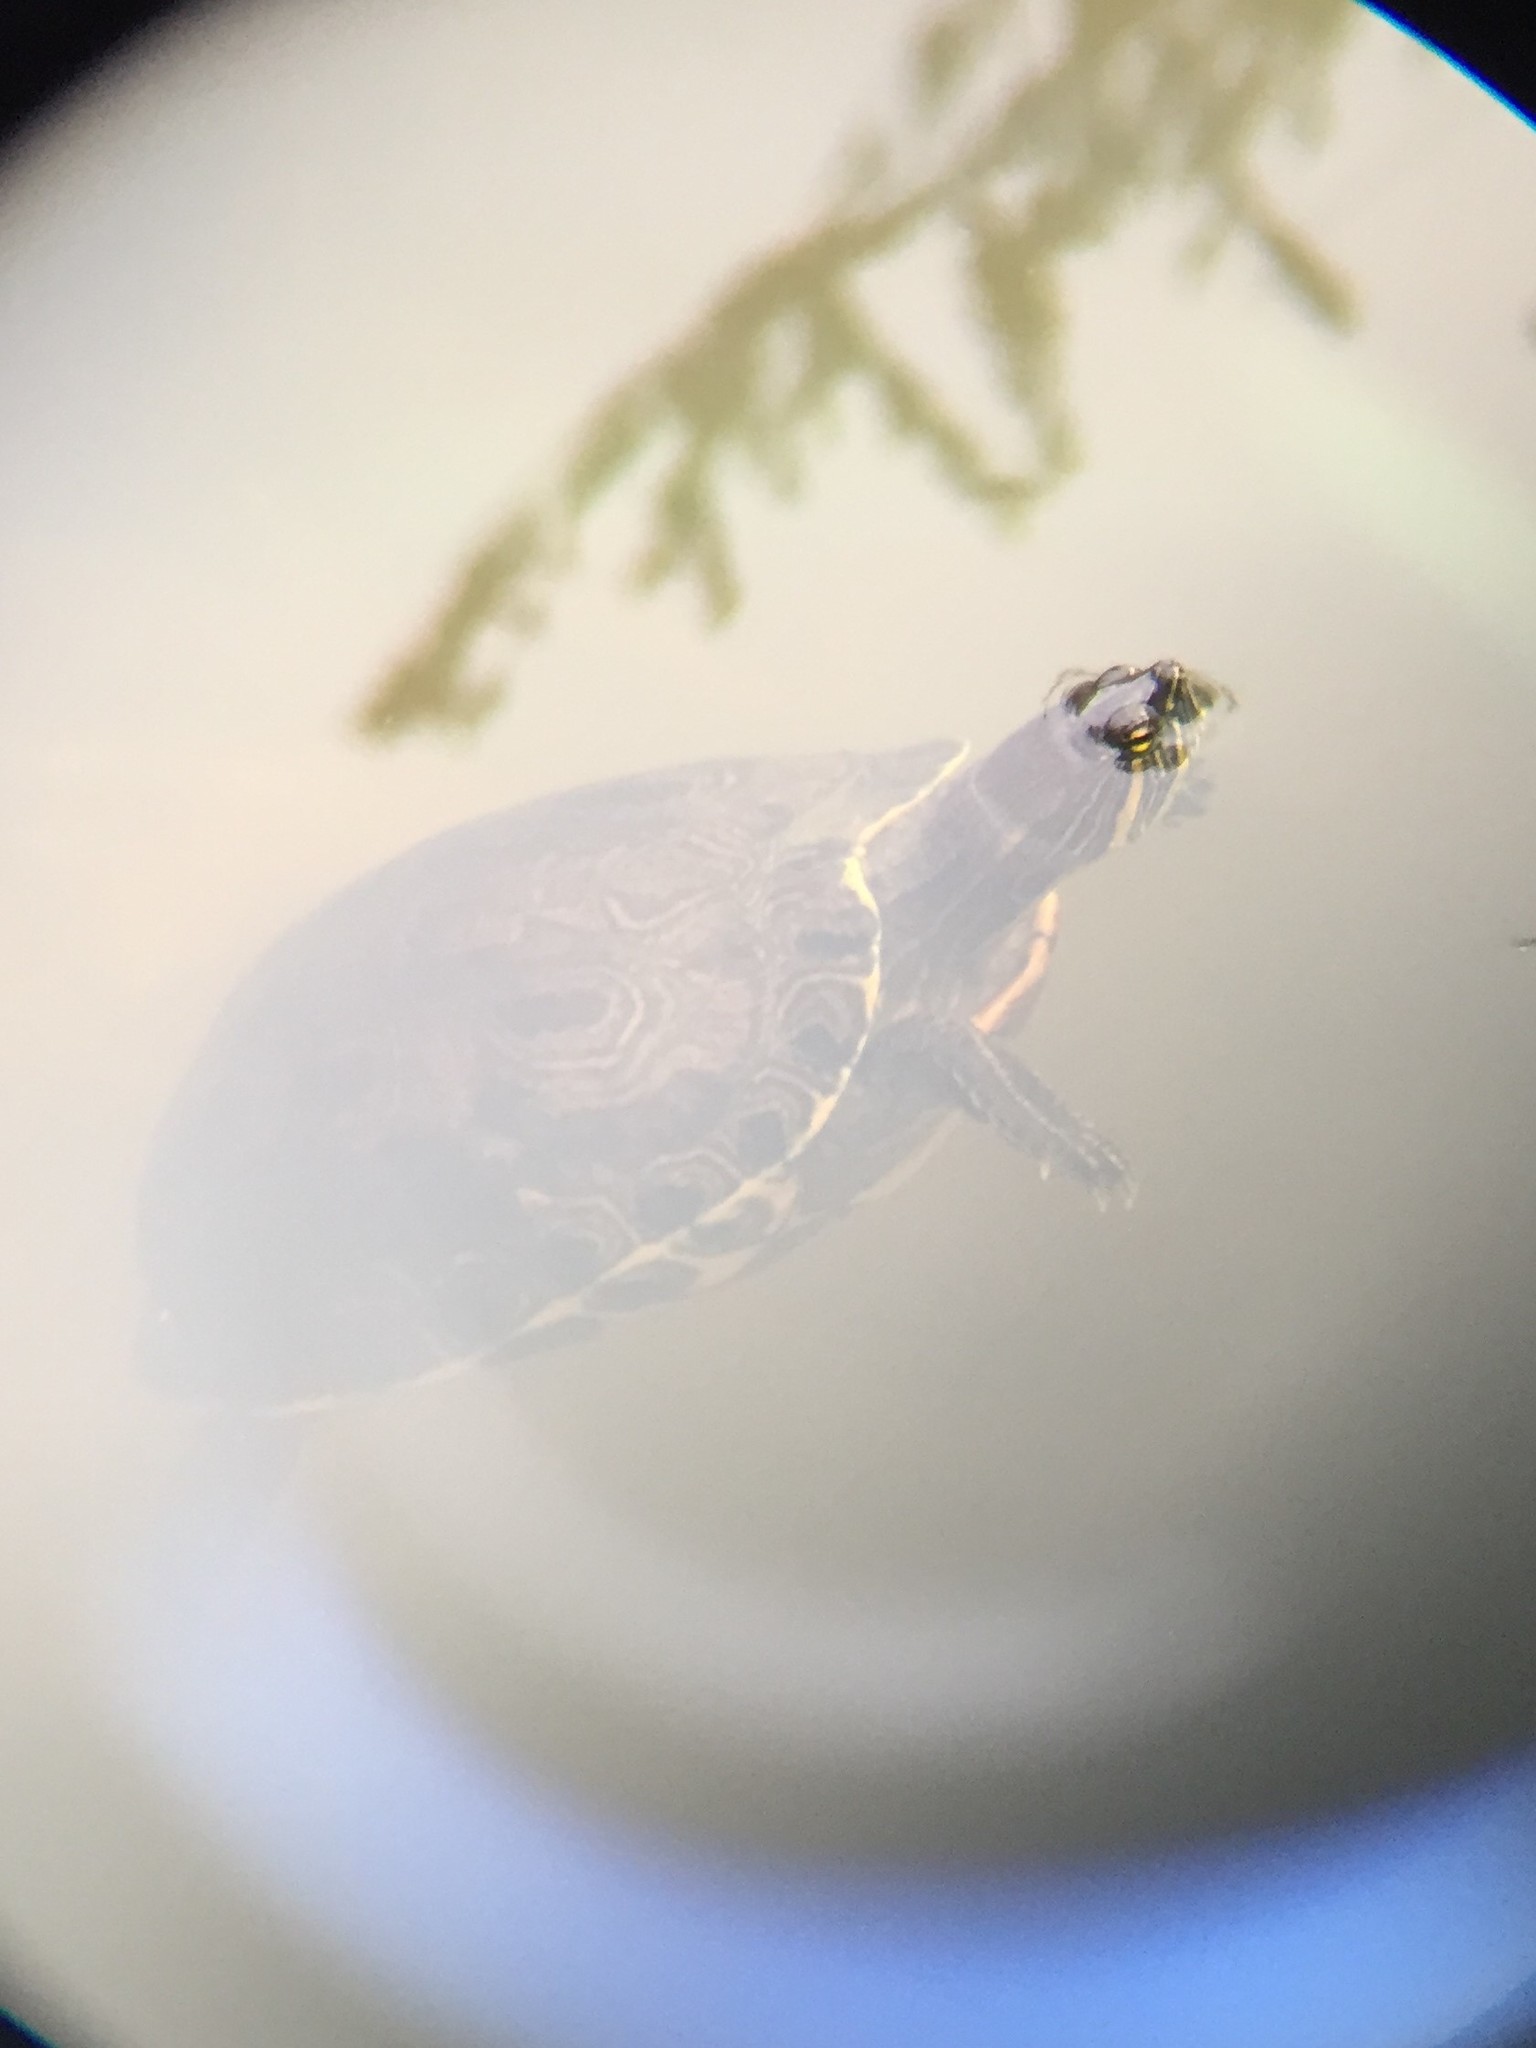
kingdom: Animalia
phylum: Chordata
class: Testudines
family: Emydidae
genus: Trachemys
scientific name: Trachemys venusta
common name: Mesoamerican slider
